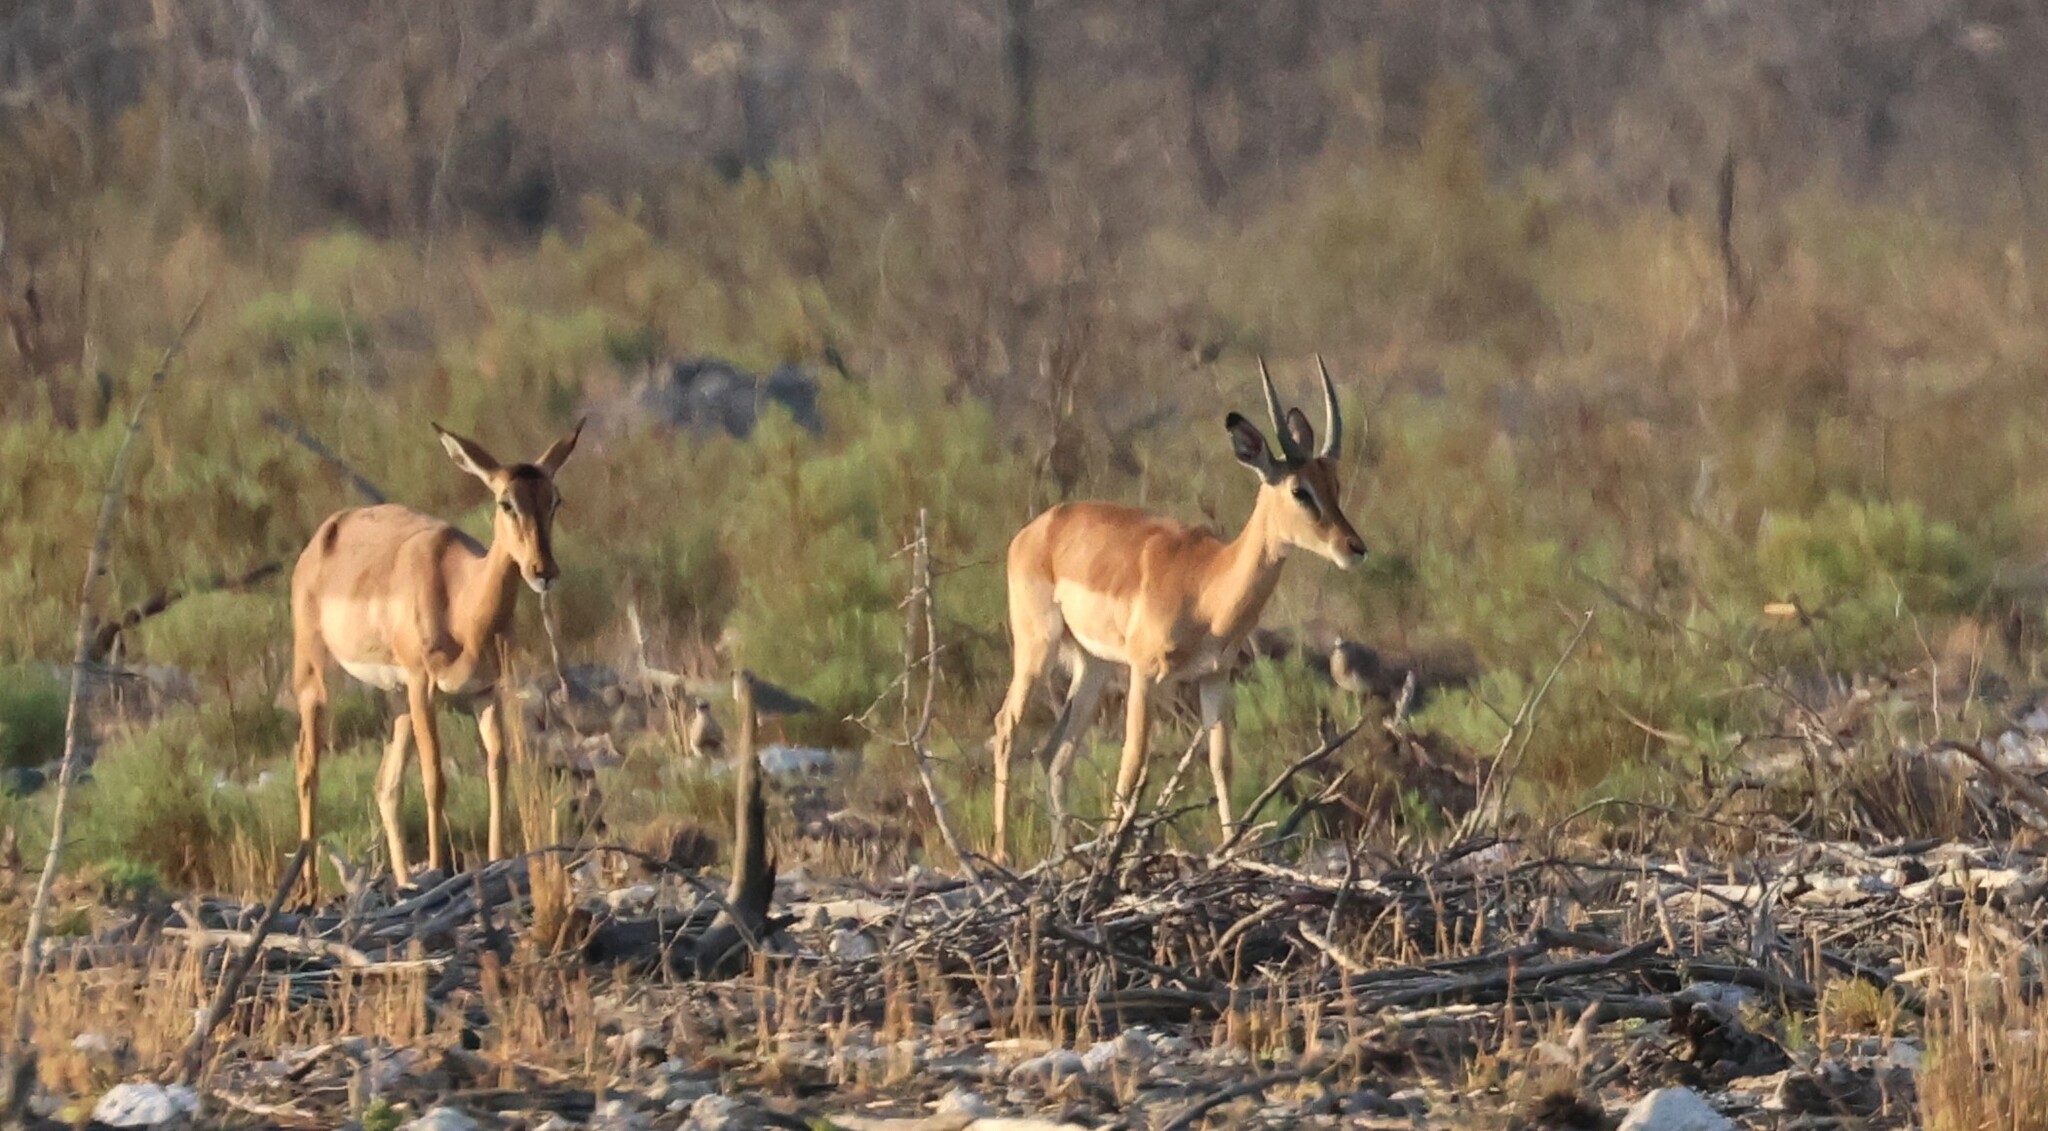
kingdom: Animalia
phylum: Chordata
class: Mammalia
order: Artiodactyla
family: Bovidae
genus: Aepyceros
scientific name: Aepyceros melampus
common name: Impala
